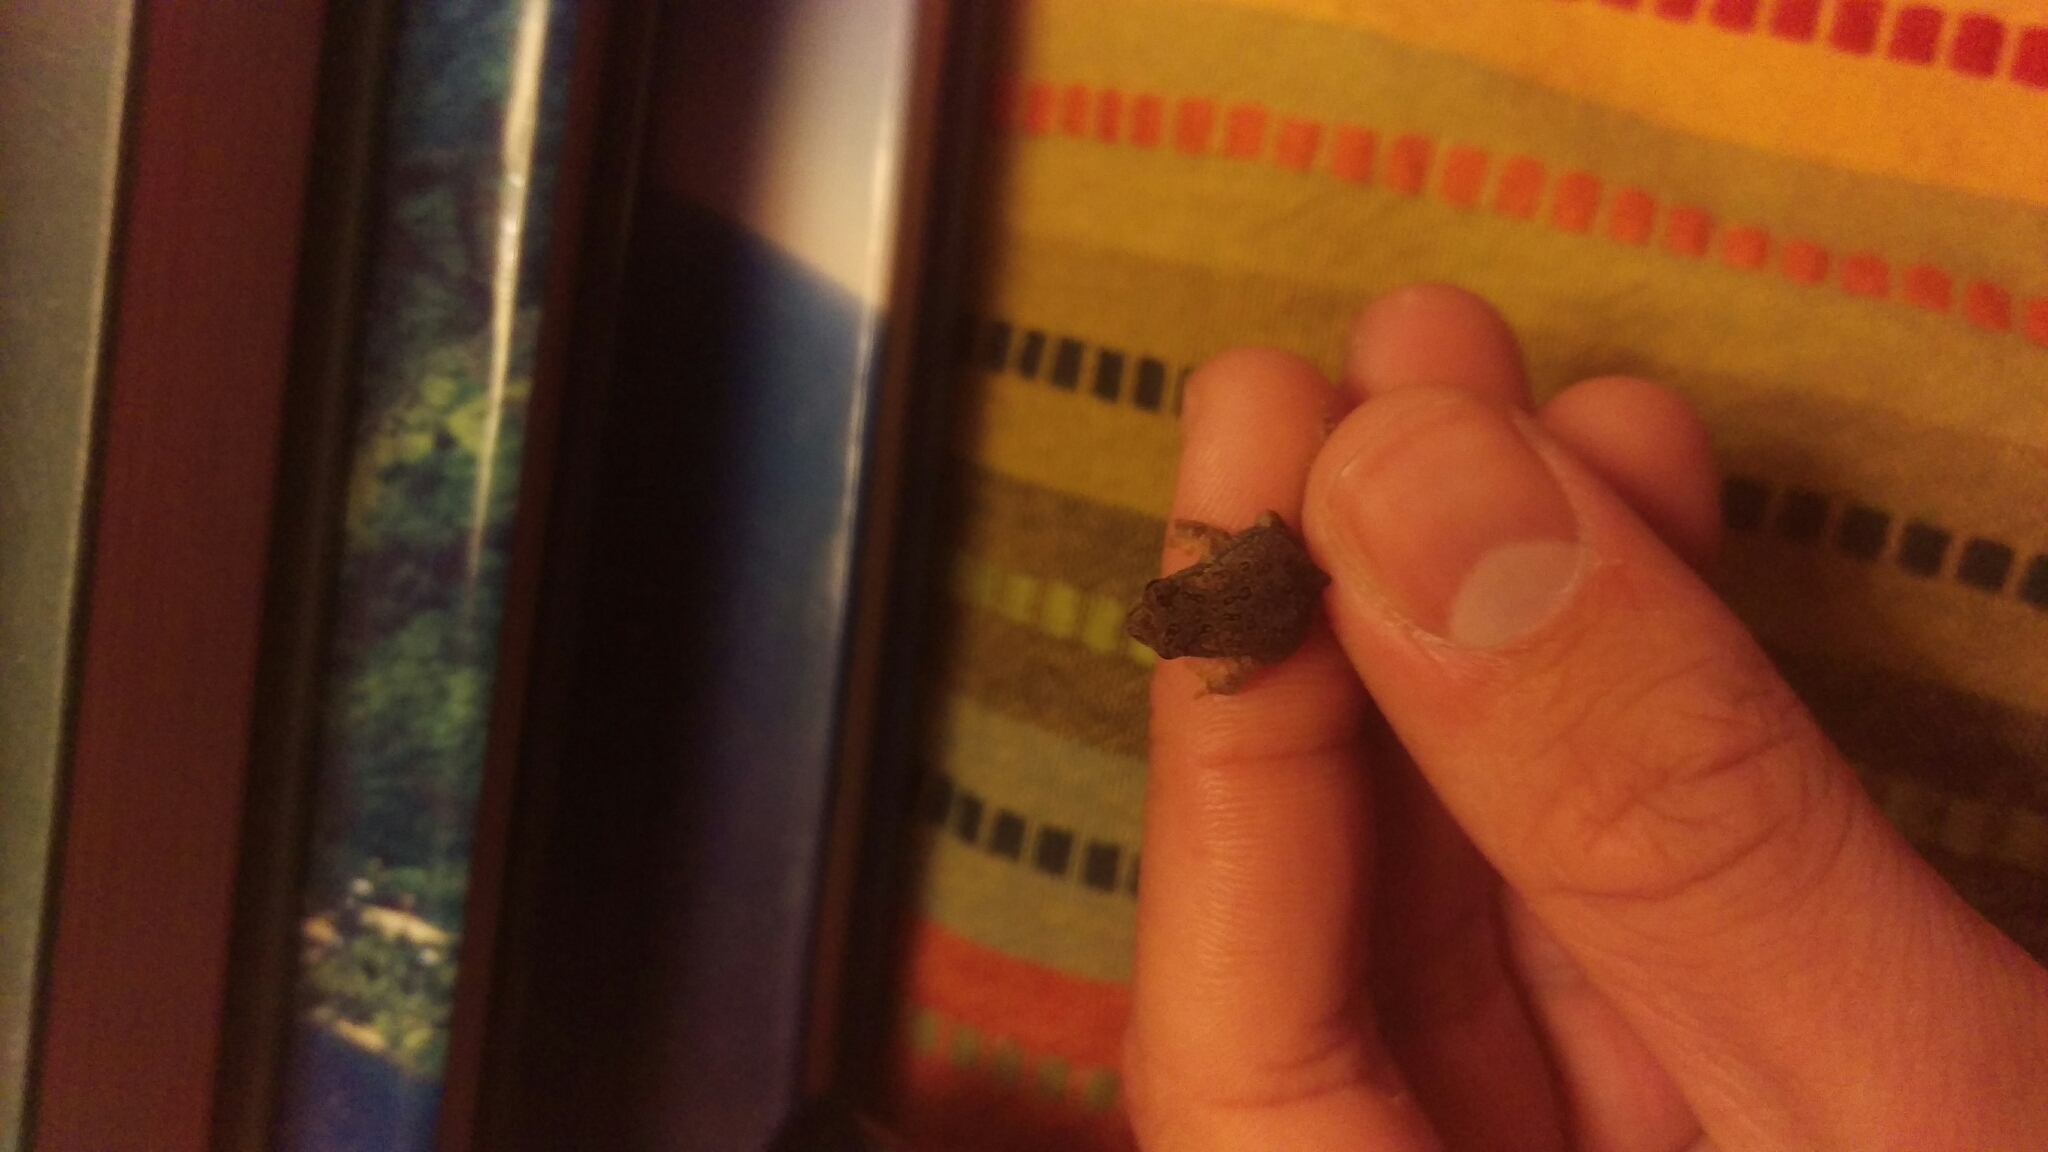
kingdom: Animalia
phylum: Chordata
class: Amphibia
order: Anura
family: Bufonidae
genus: Anaxyrus
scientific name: Anaxyrus americanus
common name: American toad
